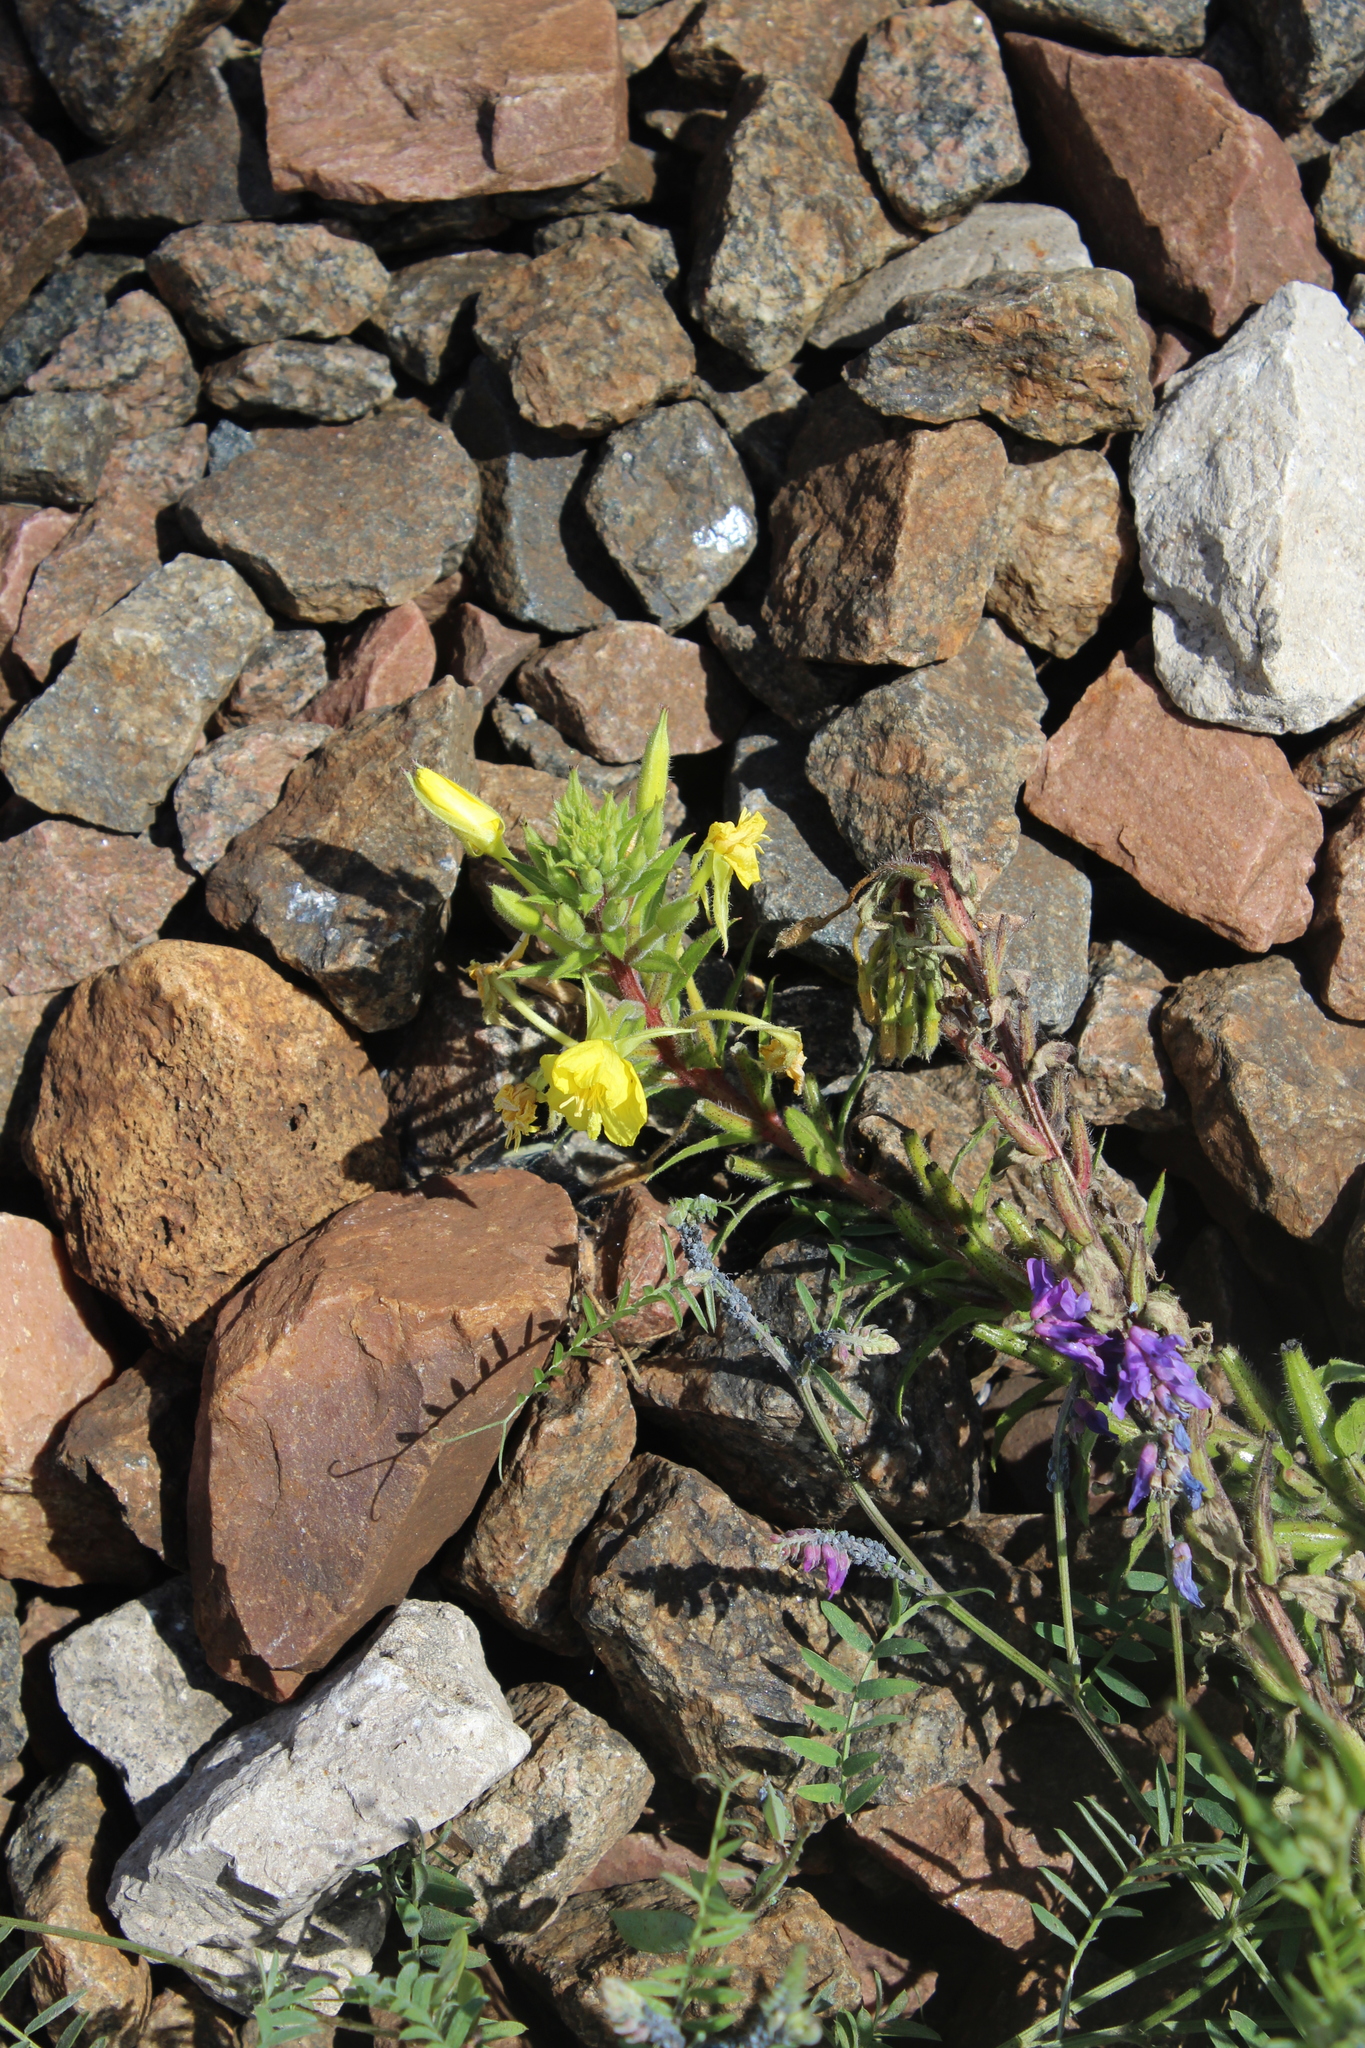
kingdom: Plantae
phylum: Tracheophyta
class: Magnoliopsida
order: Myrtales
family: Onagraceae
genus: Oenothera
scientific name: Oenothera rubricaulis
